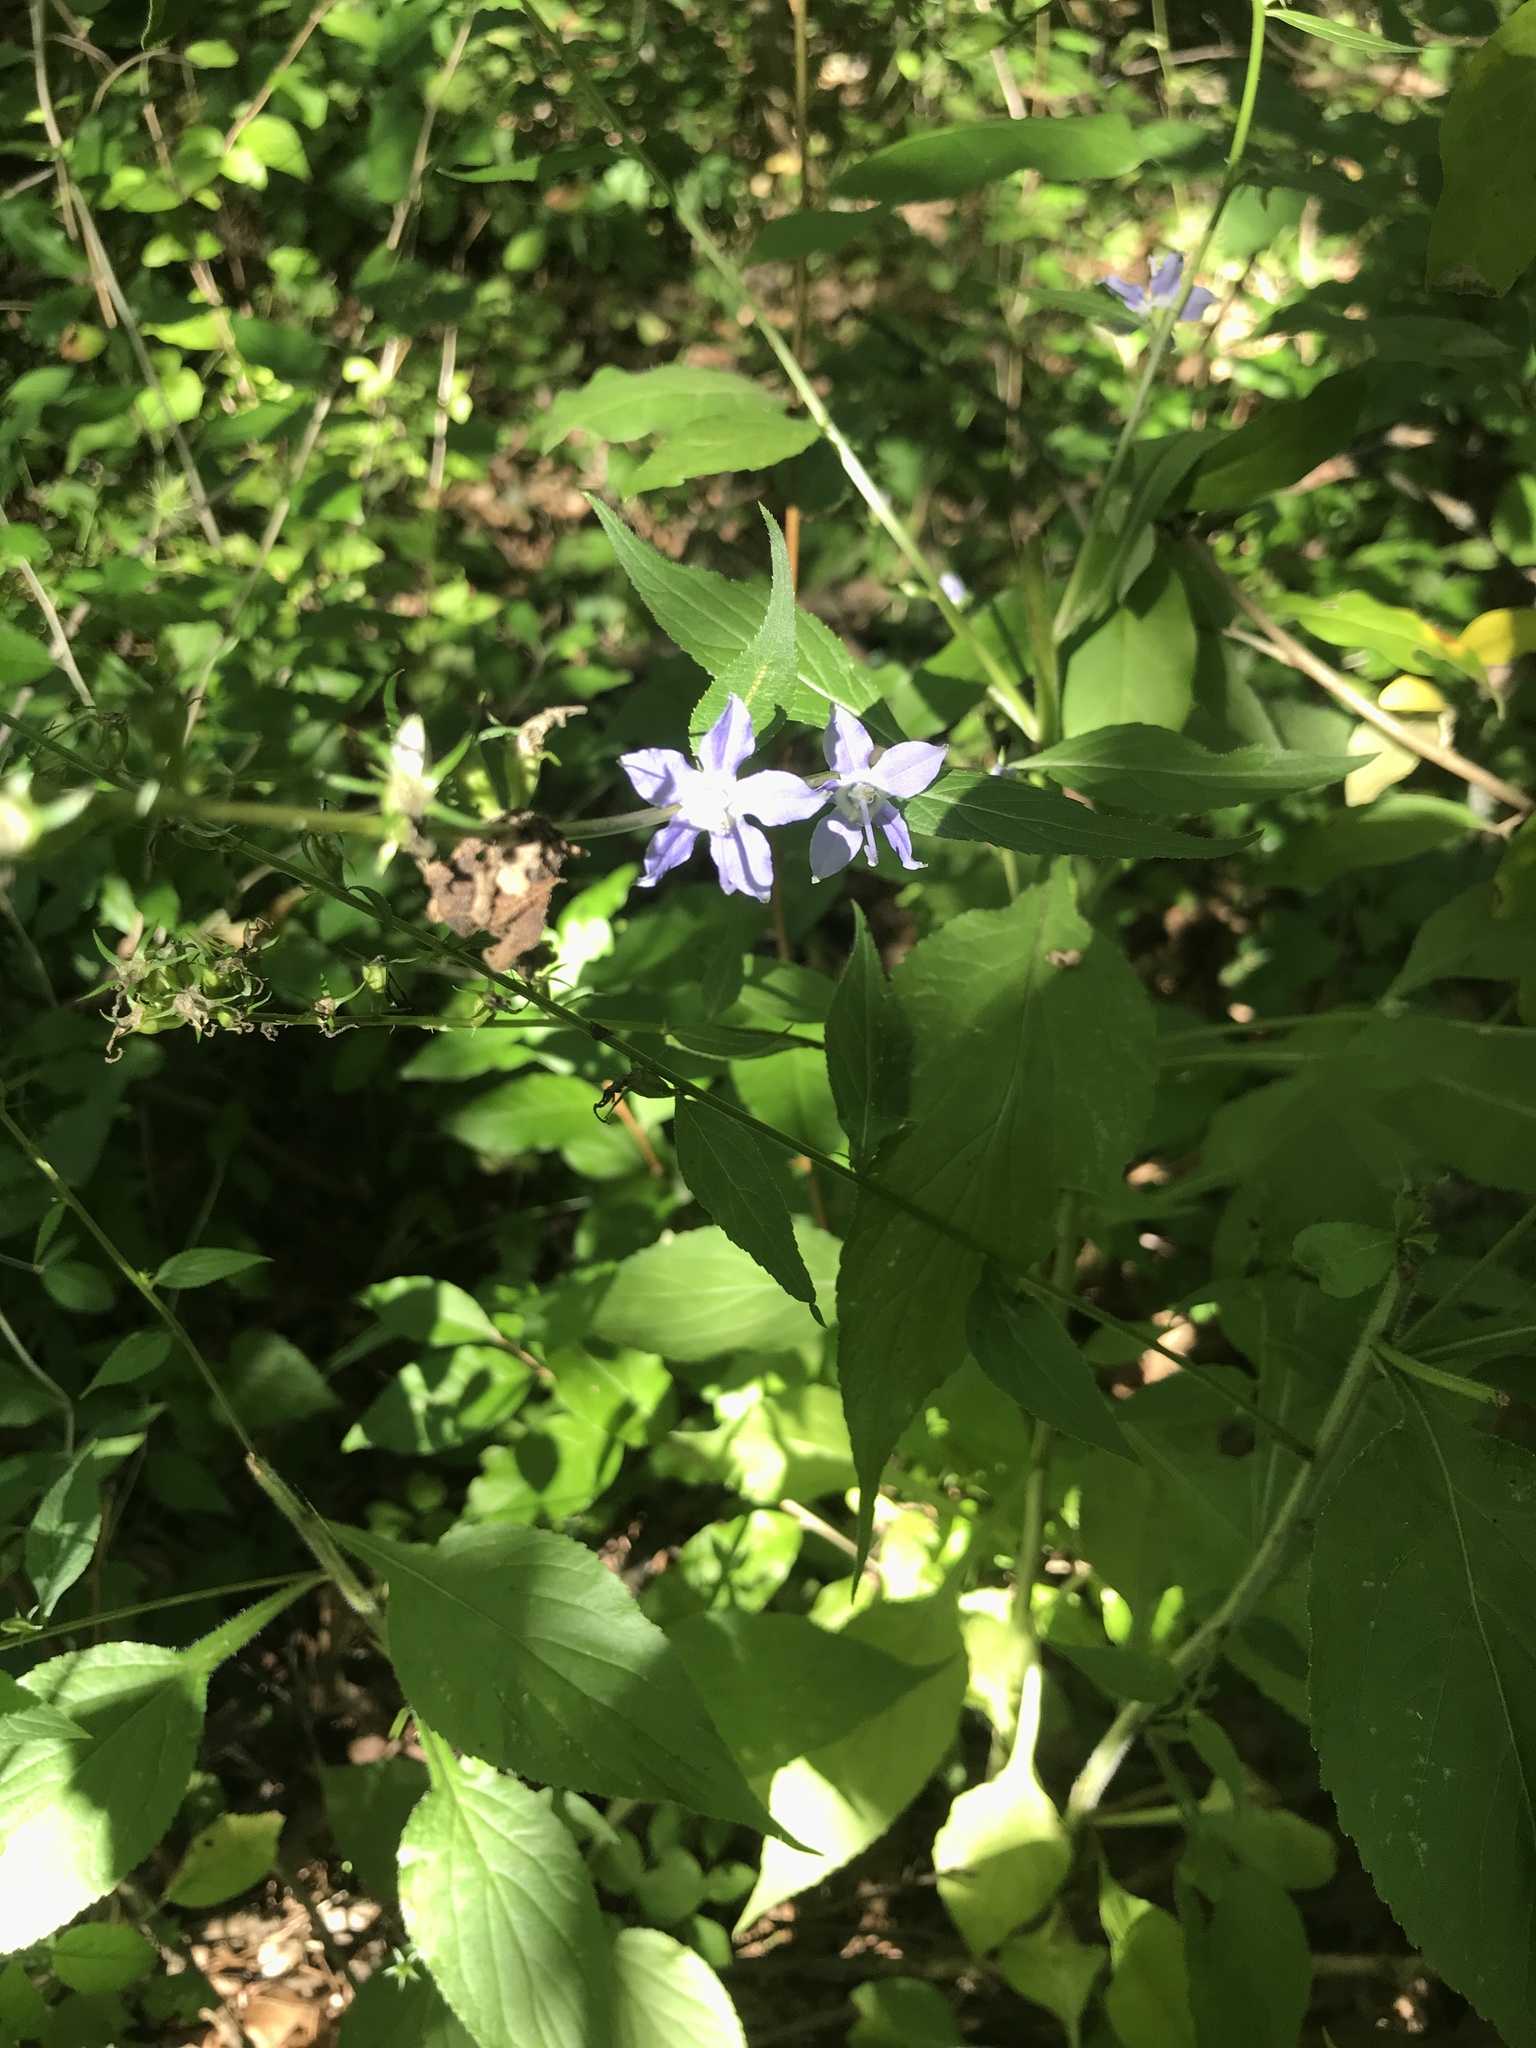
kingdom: Plantae
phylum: Tracheophyta
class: Magnoliopsida
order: Asterales
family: Campanulaceae
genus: Campanulastrum
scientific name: Campanulastrum americanum
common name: American bellflower
